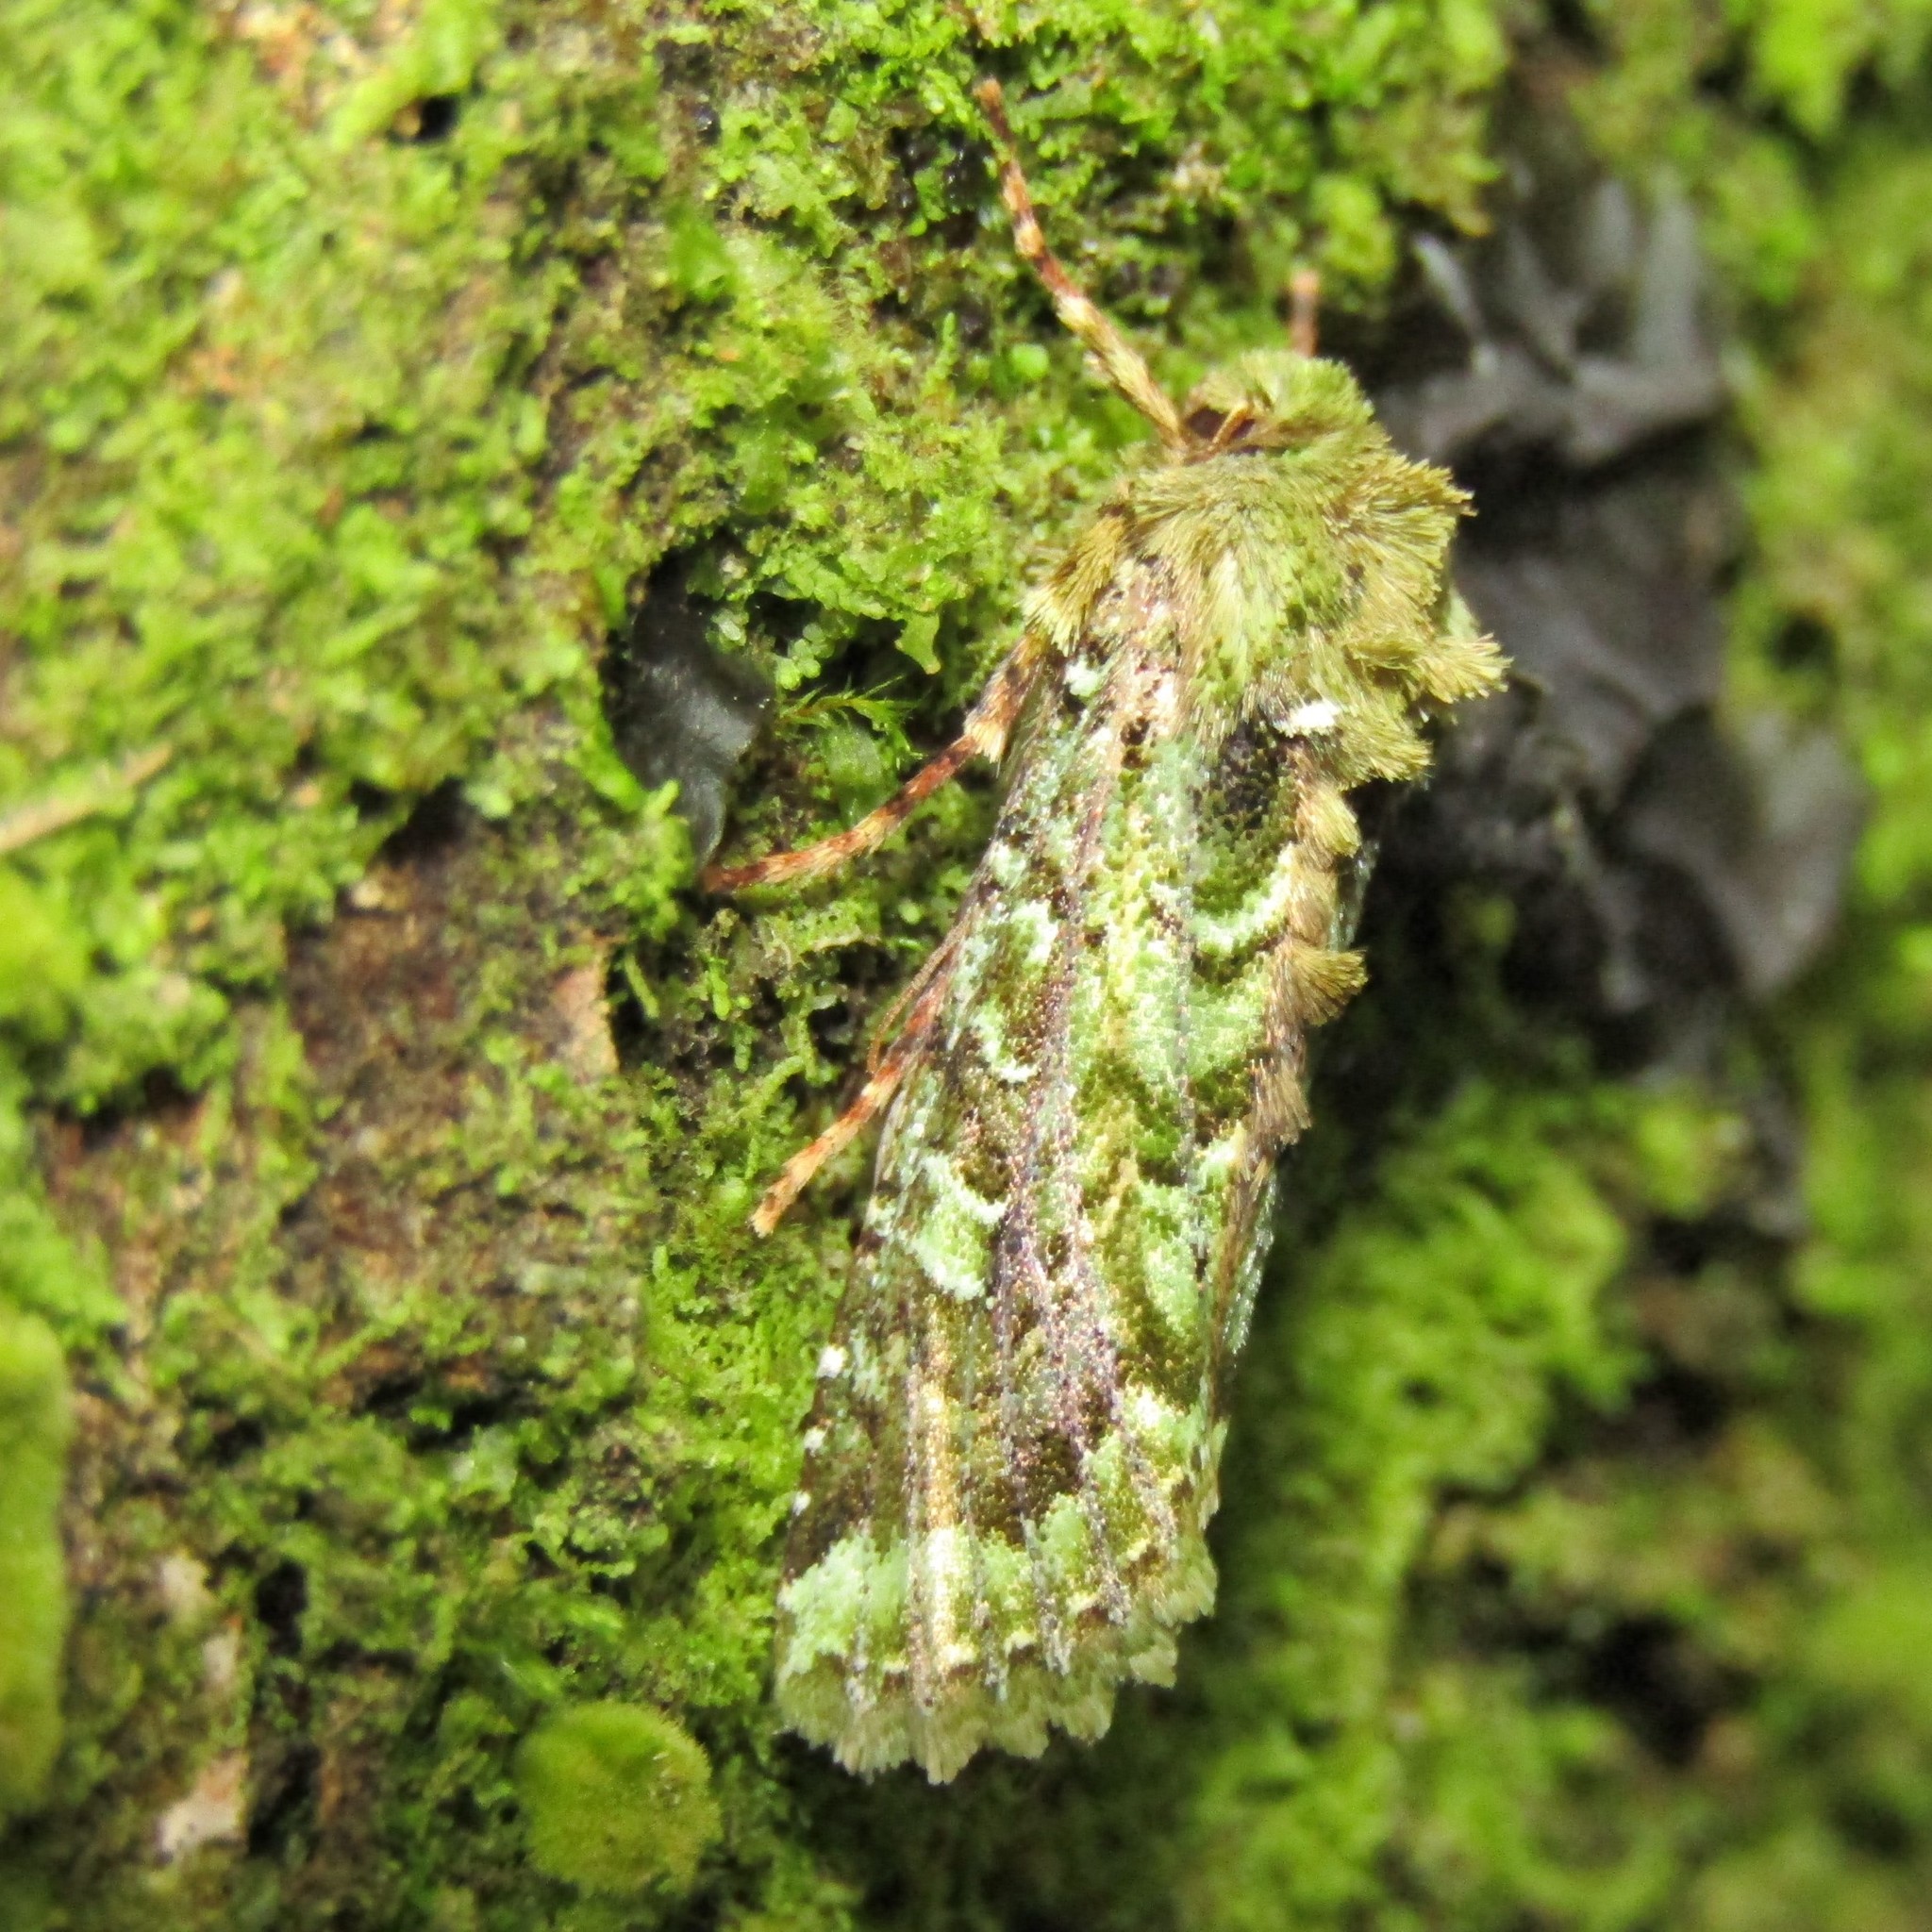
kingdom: Animalia
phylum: Arthropoda
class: Insecta
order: Lepidoptera
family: Noctuidae
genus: Feredayia
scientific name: Feredayia grammosa
